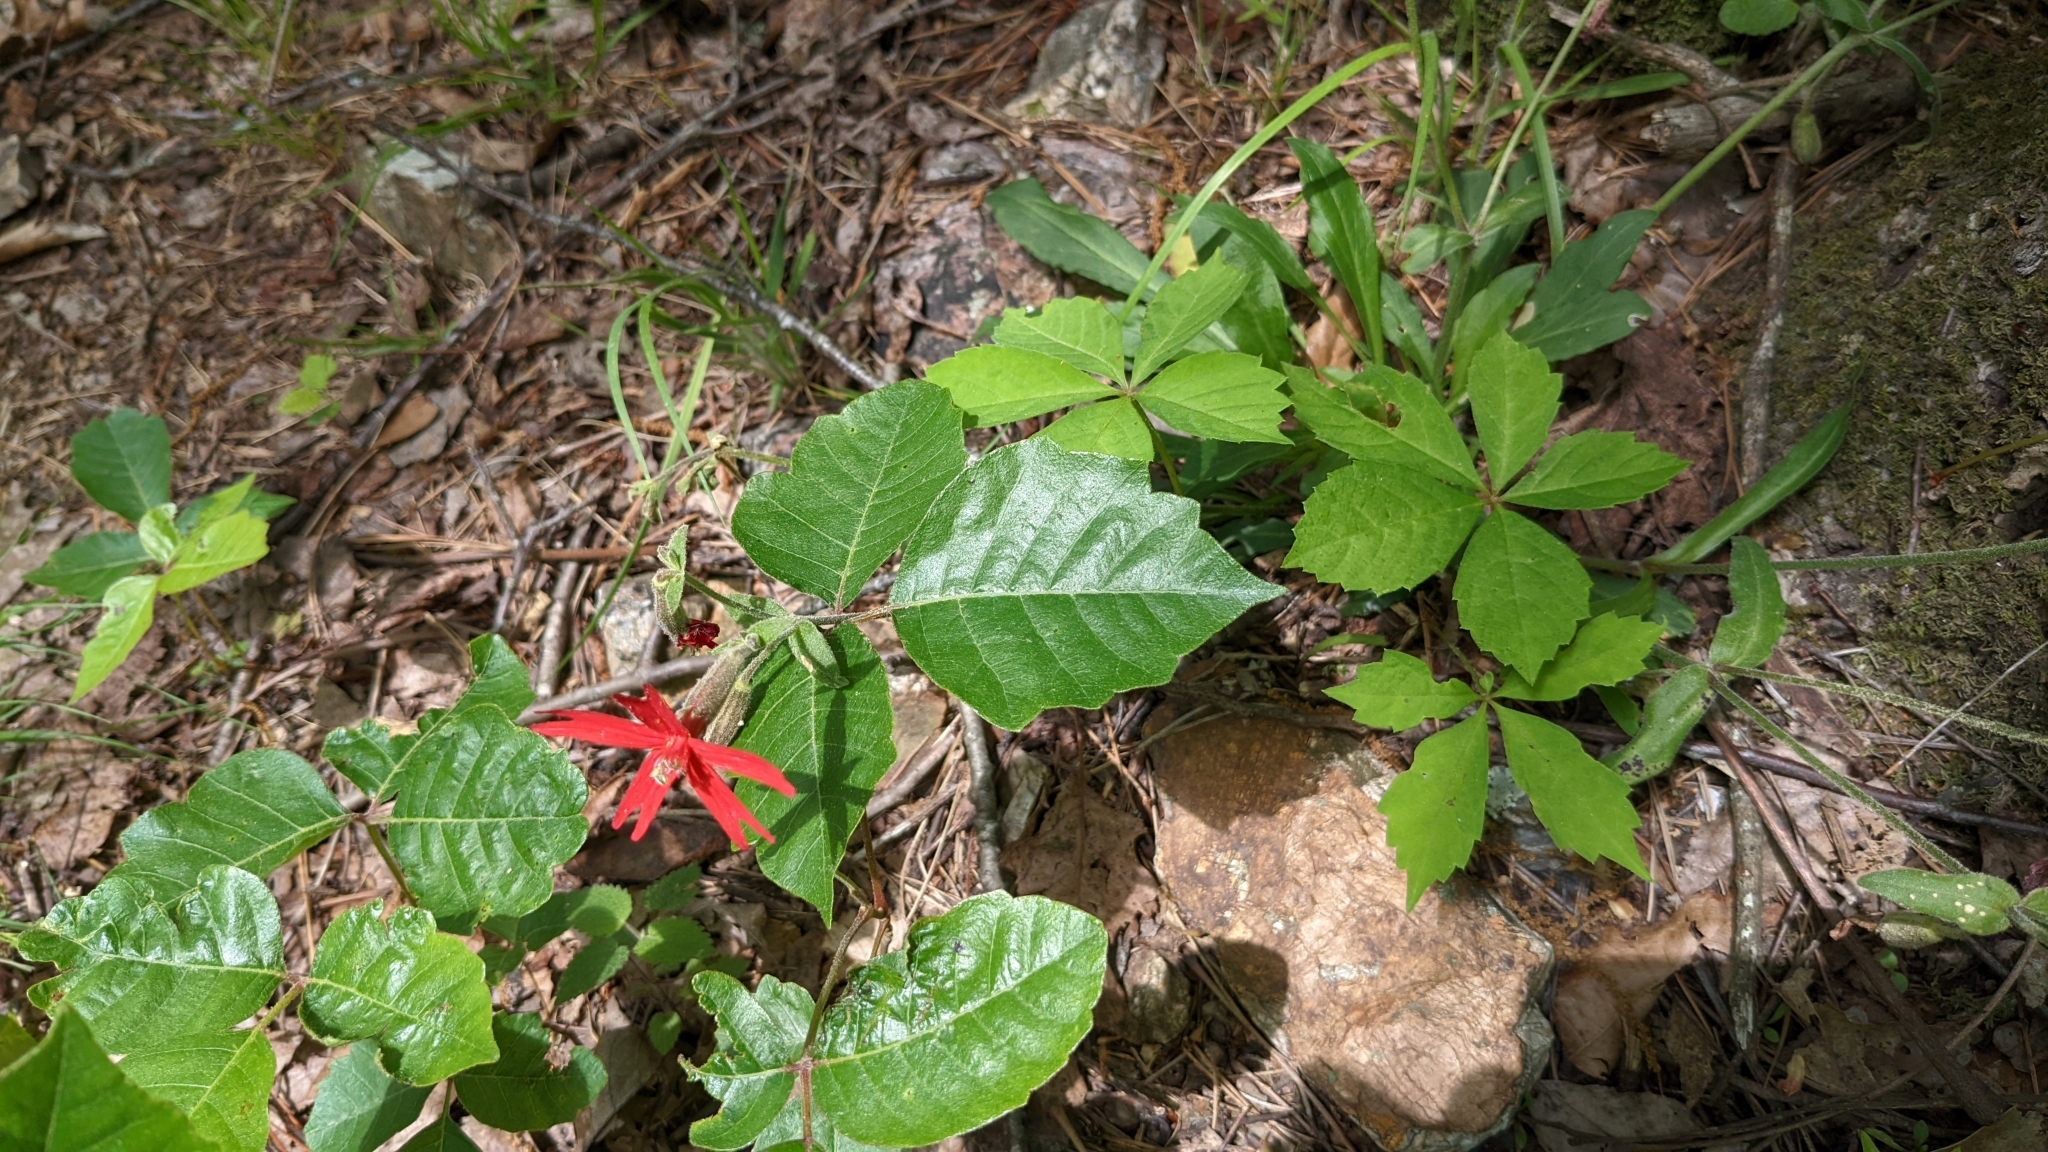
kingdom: Plantae
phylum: Tracheophyta
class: Magnoliopsida
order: Caryophyllales
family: Caryophyllaceae
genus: Silene
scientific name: Silene virginica
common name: Fire-pink
